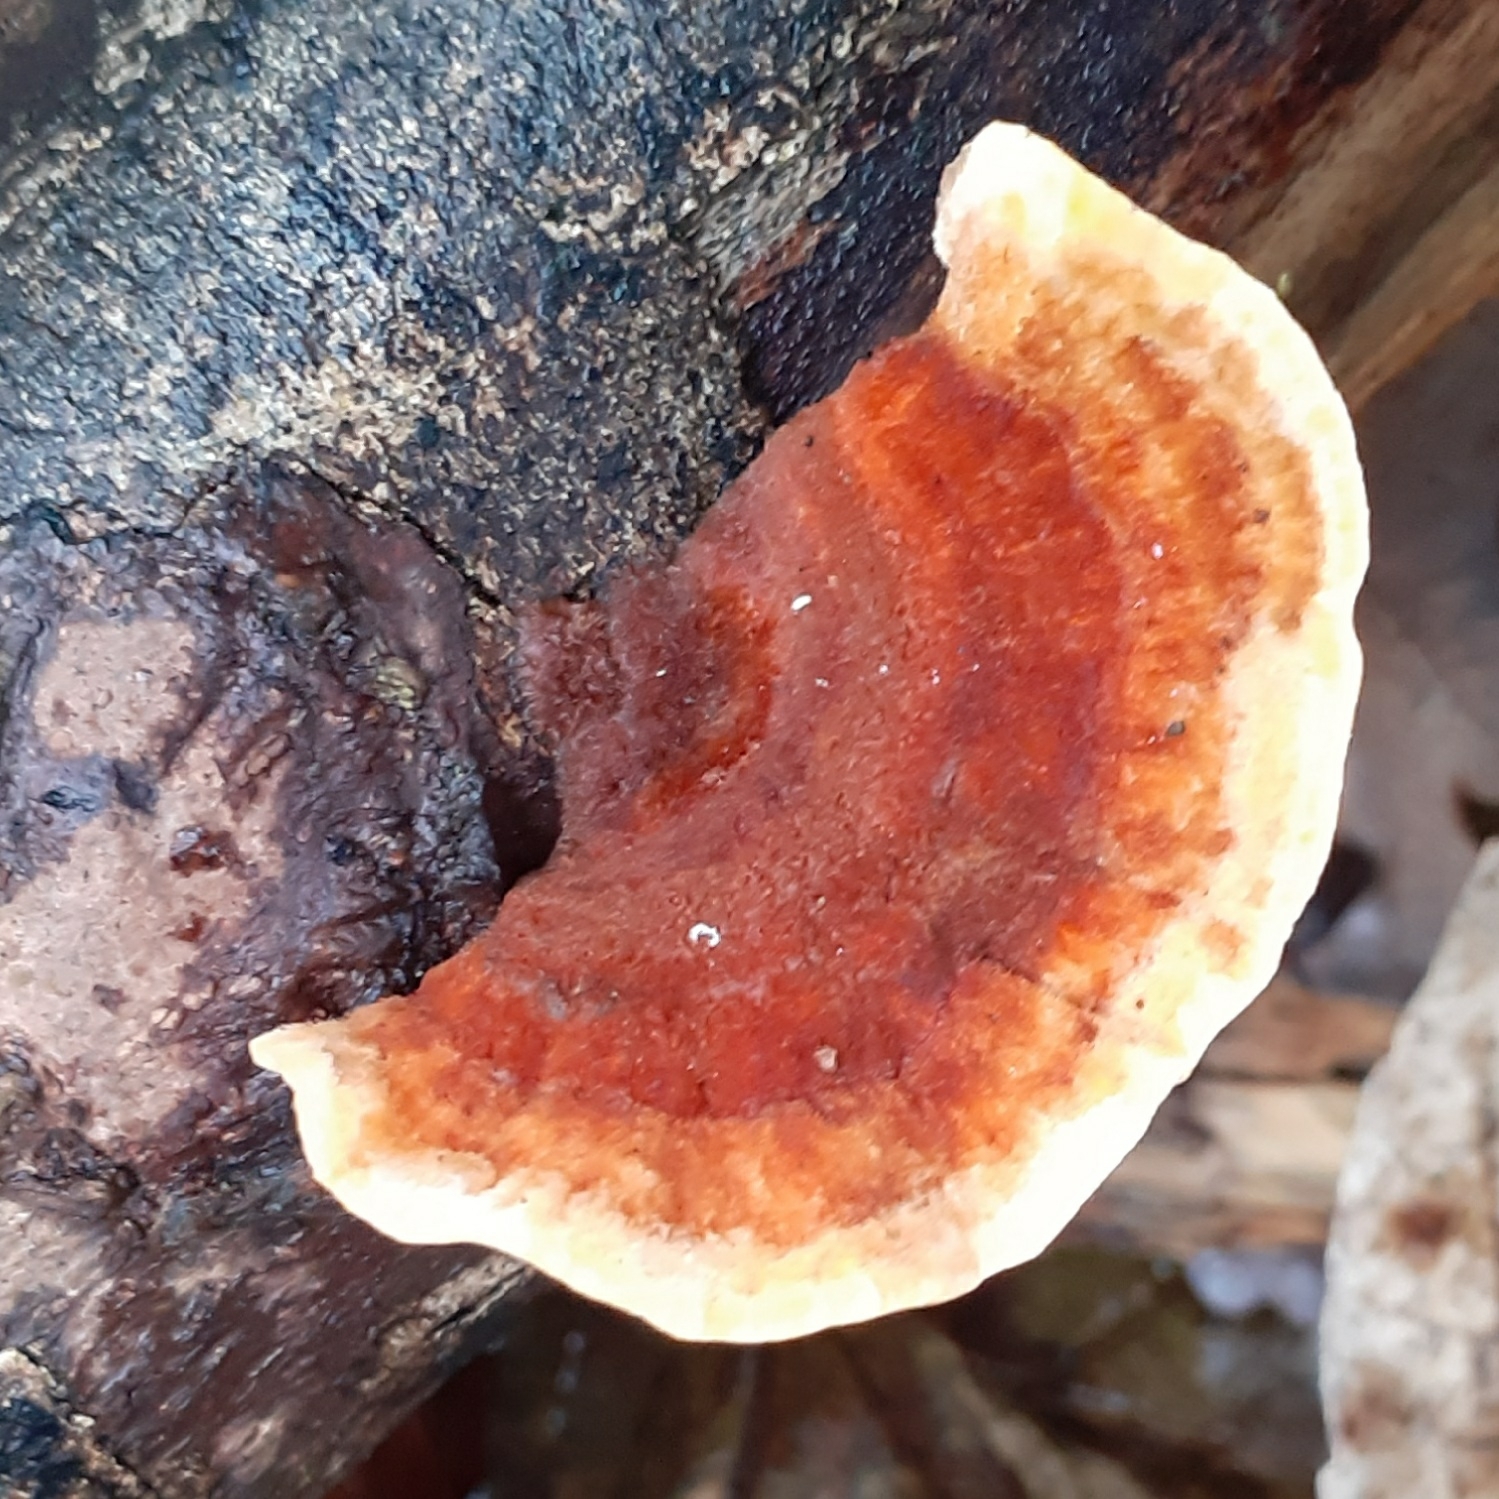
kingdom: Fungi
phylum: Basidiomycota
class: Agaricomycetes
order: Russulales
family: Stereaceae
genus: Stereum
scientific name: Stereum subtomentosum
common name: Yellowing curtain crust
